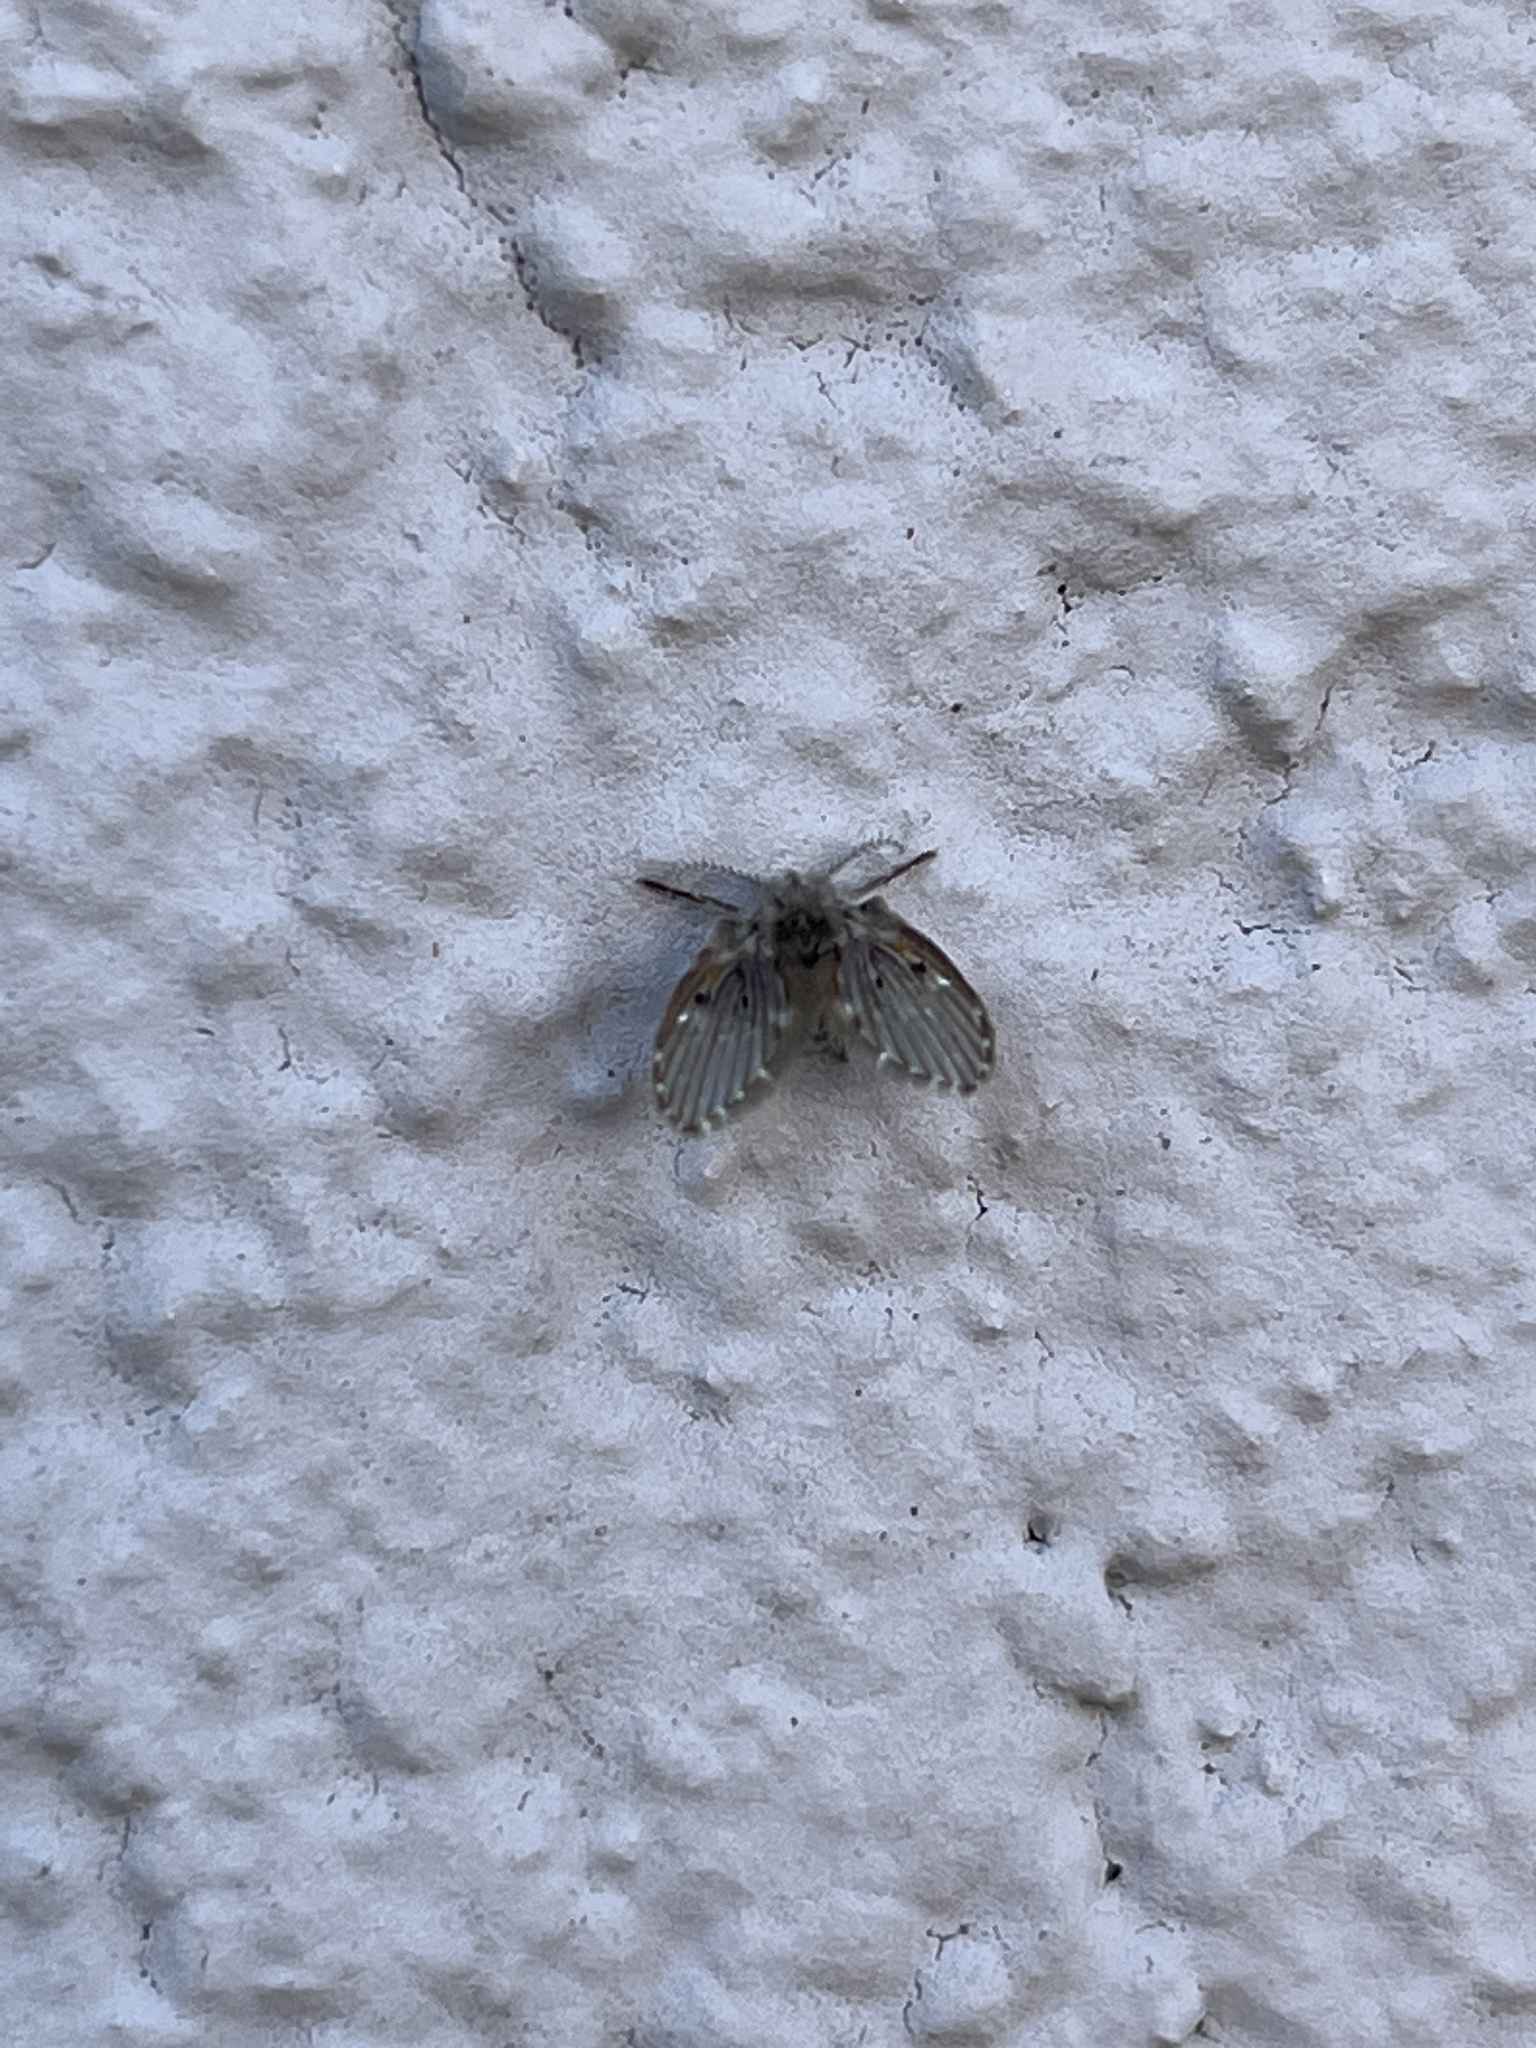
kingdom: Animalia
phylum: Arthropoda
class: Insecta
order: Diptera
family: Psychodidae
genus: Clogmia
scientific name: Clogmia albipunctatus
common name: White-spotted moth fly
